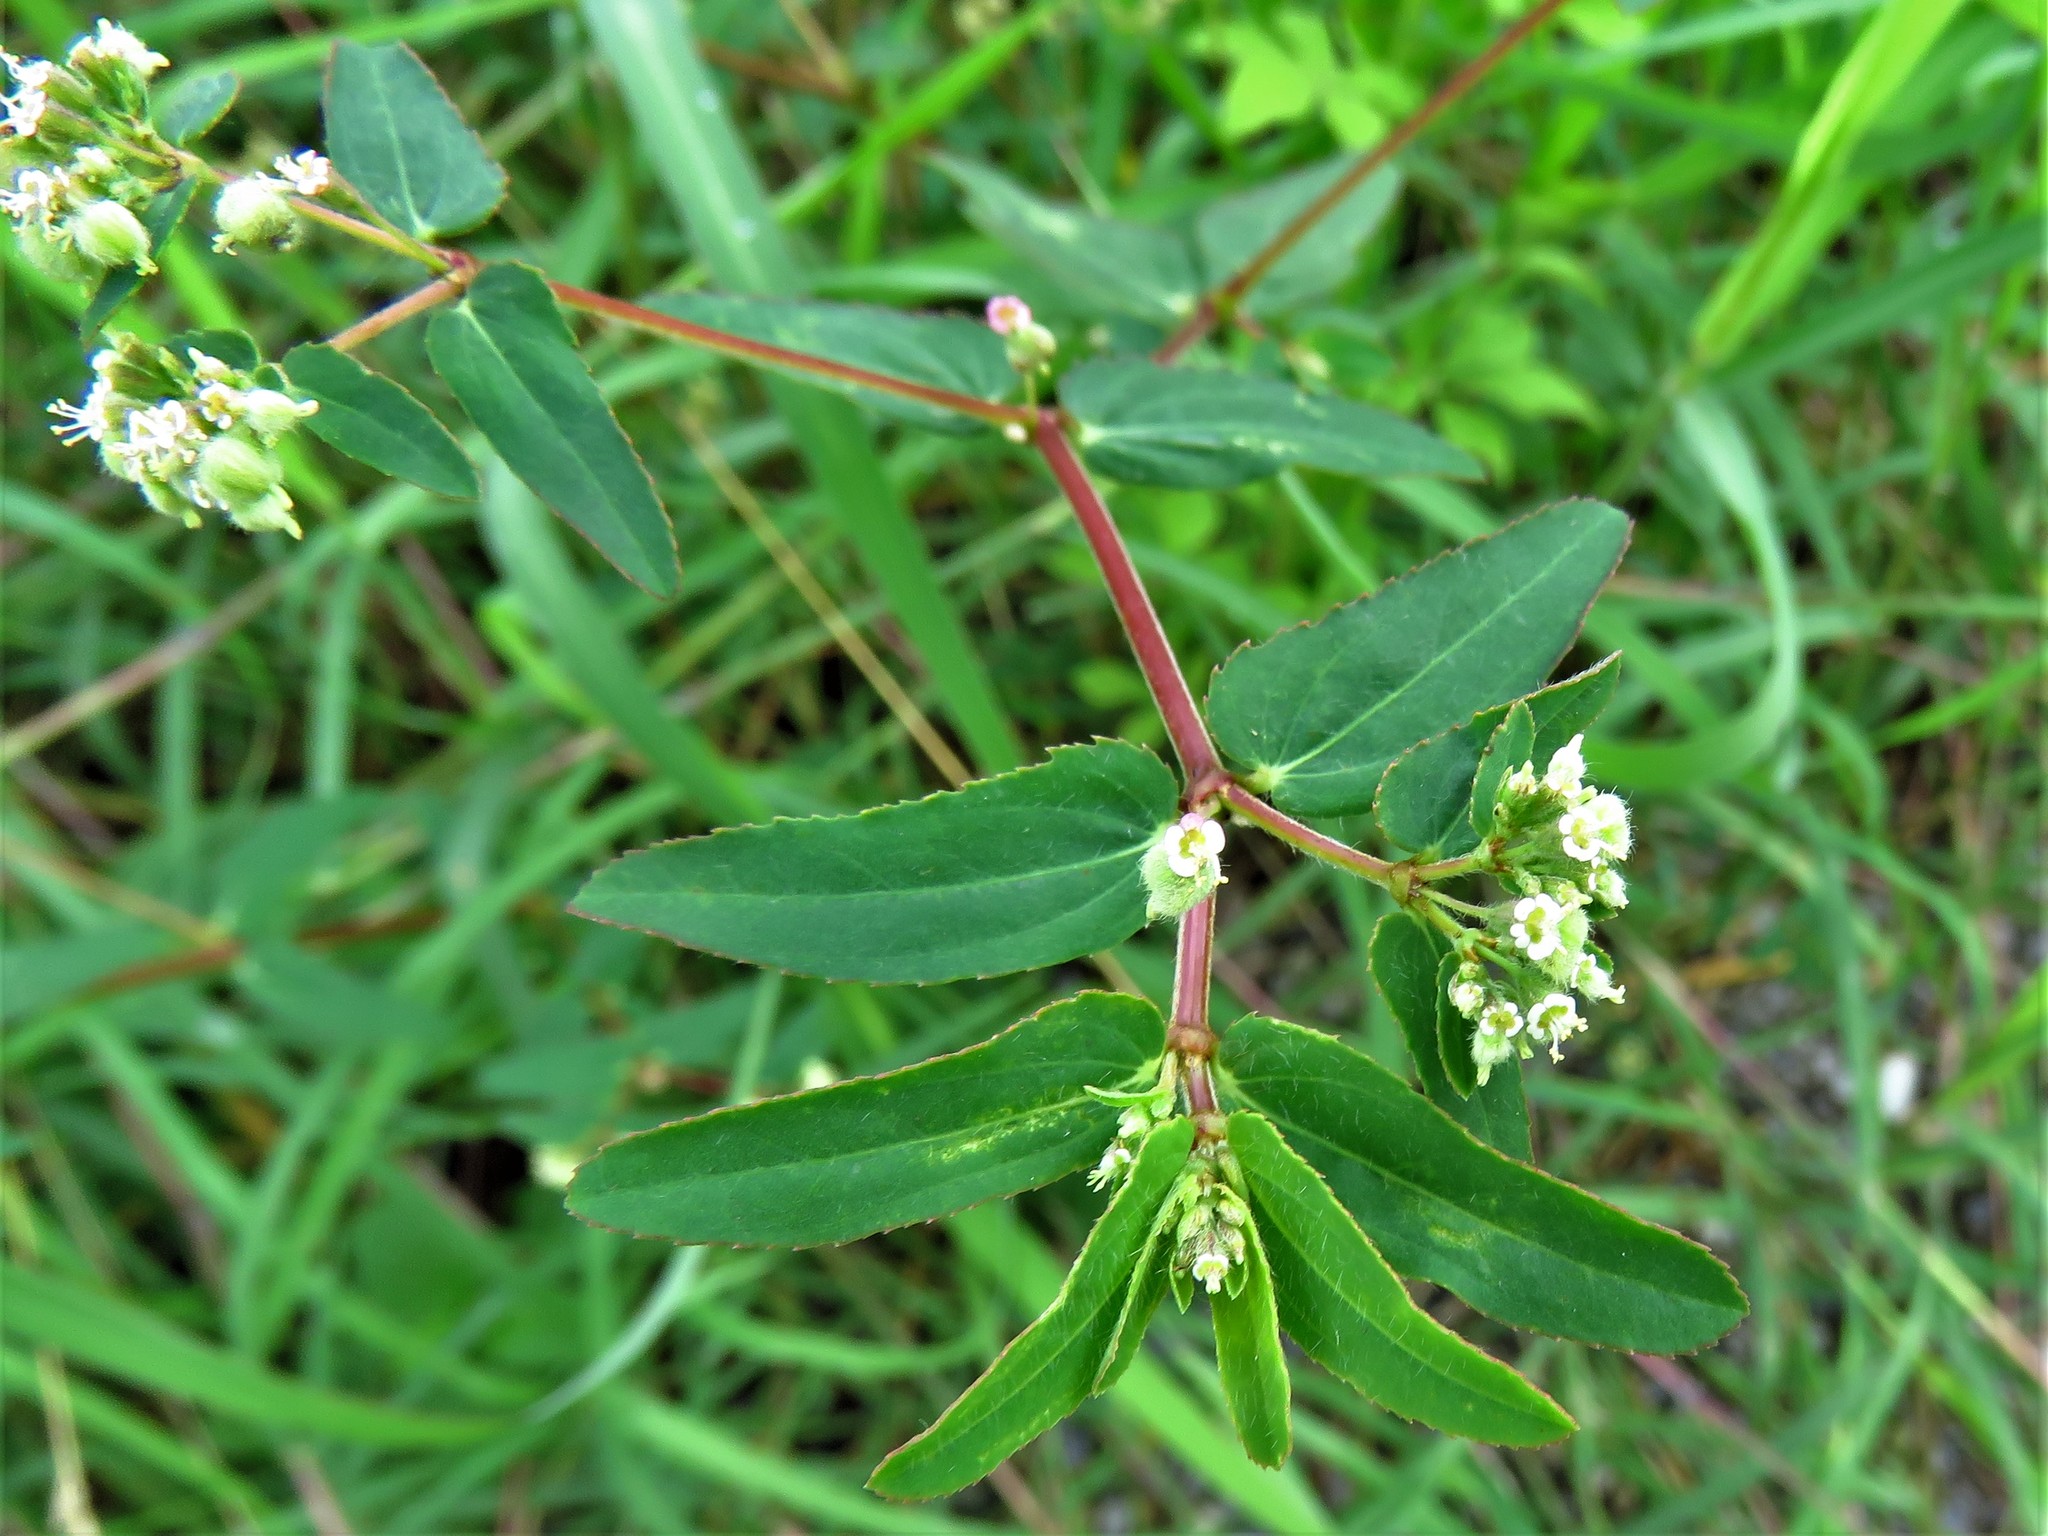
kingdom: Plantae
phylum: Tracheophyta
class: Magnoliopsida
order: Malpighiales
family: Euphorbiaceae
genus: Euphorbia
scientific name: Euphorbia lasiocarpa
